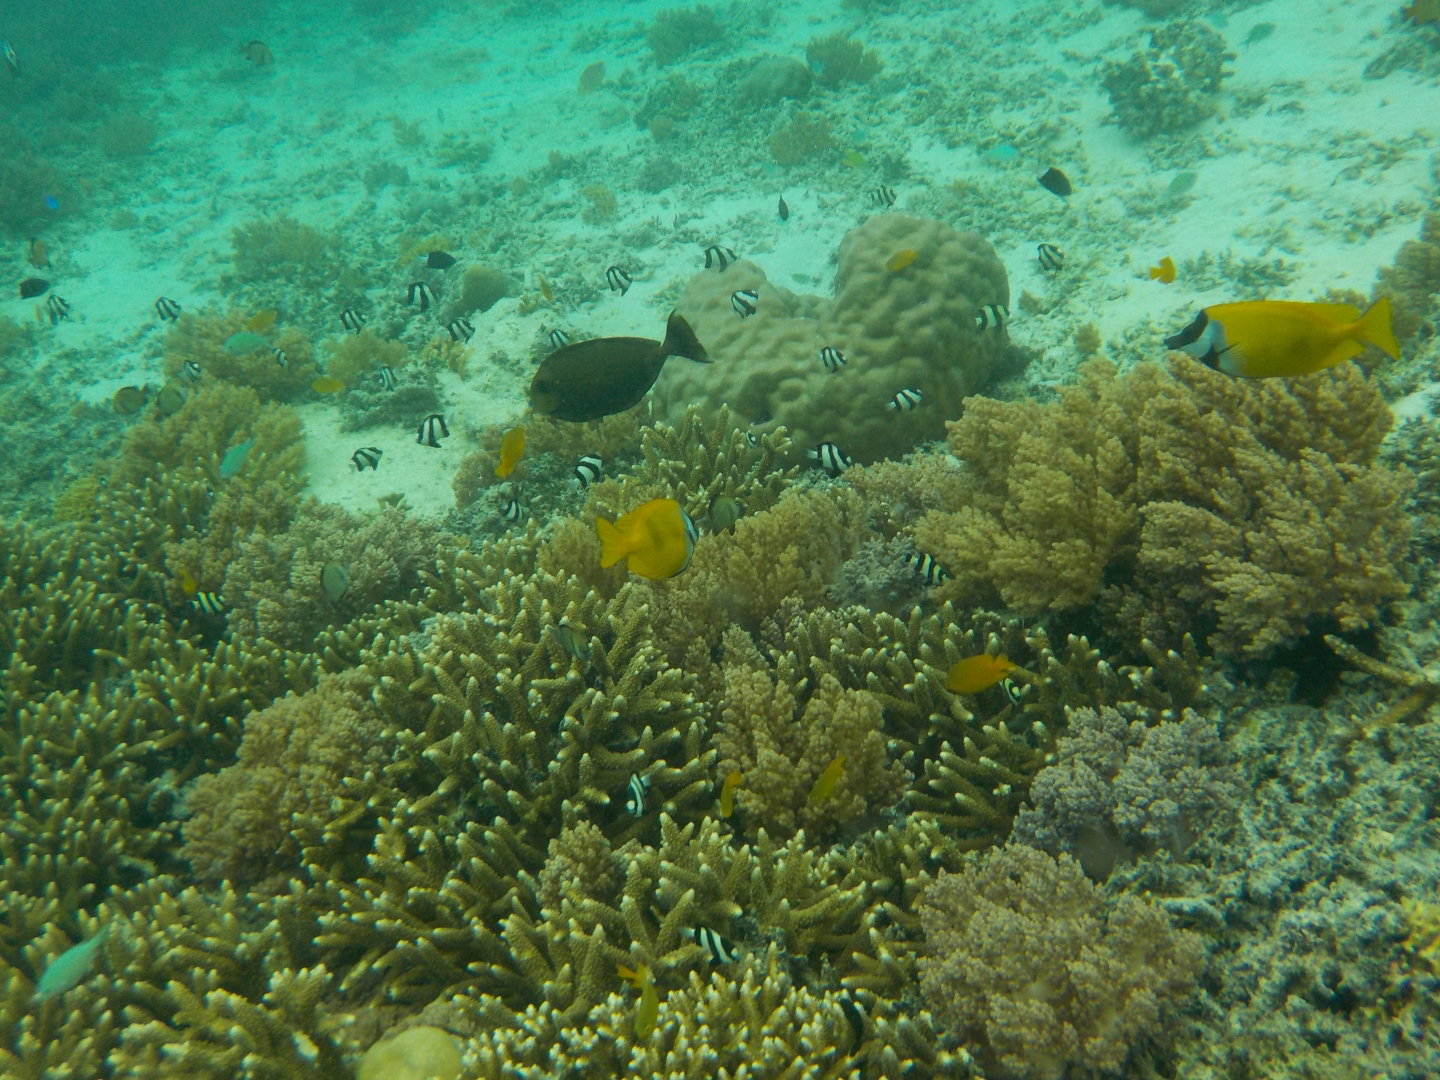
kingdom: Animalia
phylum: Chordata
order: Perciformes
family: Siganidae
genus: Siganus
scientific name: Siganus vulpinus
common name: Foxface
